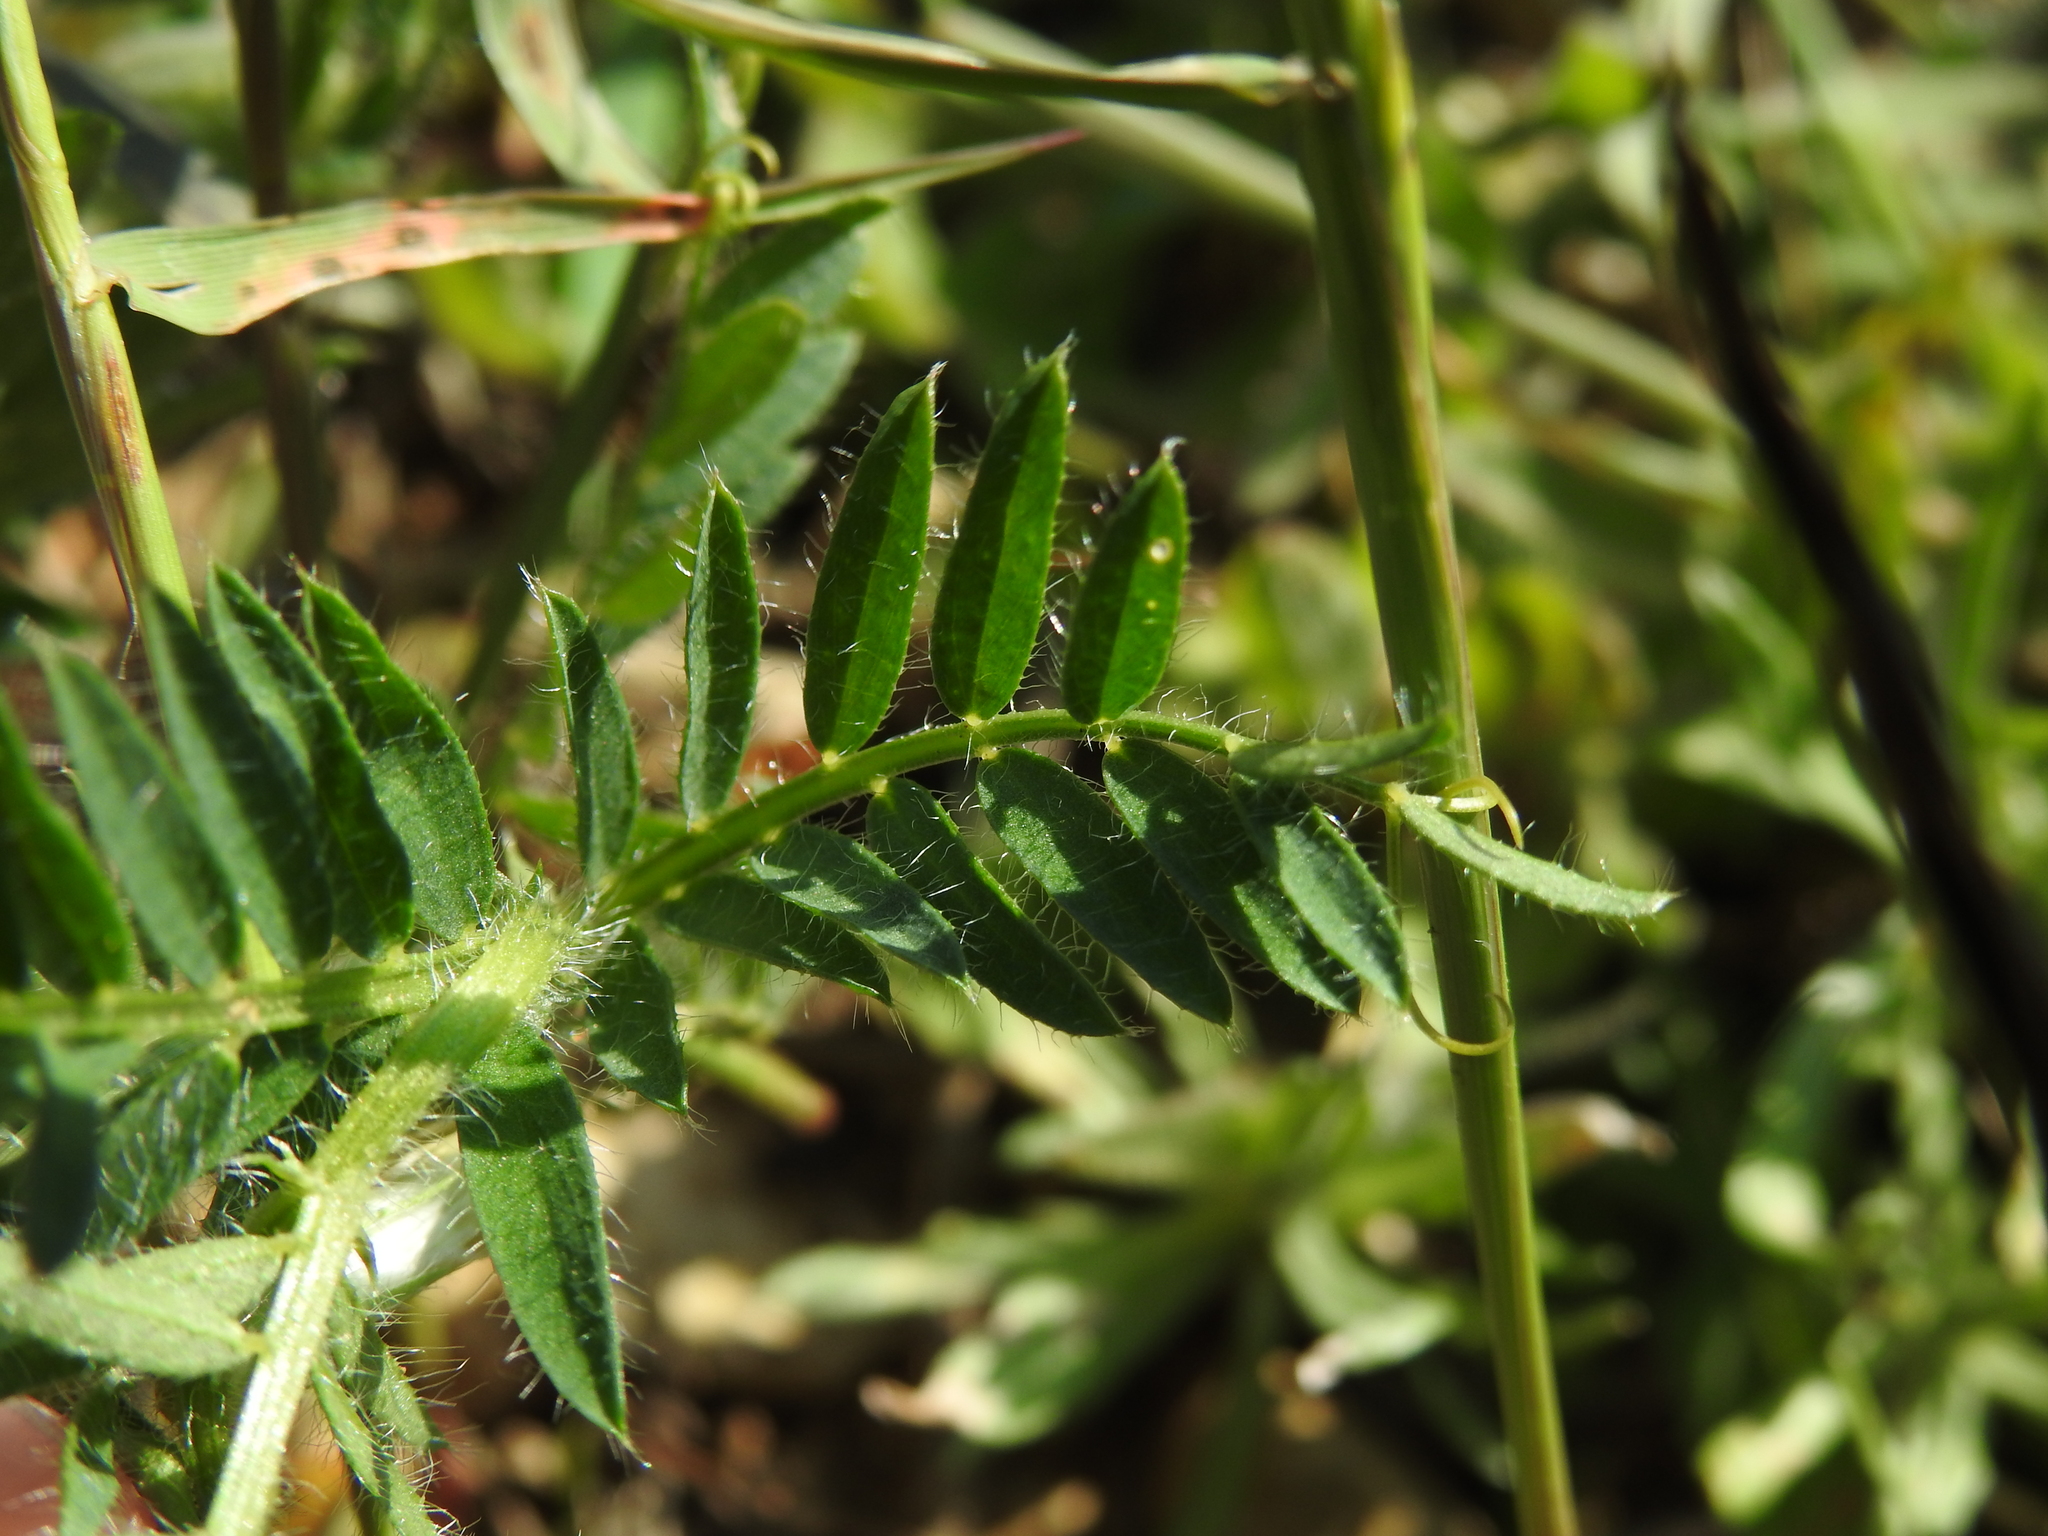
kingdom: Plantae
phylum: Tracheophyta
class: Magnoliopsida
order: Fabales
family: Fabaceae
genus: Vicia
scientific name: Vicia lutea
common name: Smooth yellow vetch
